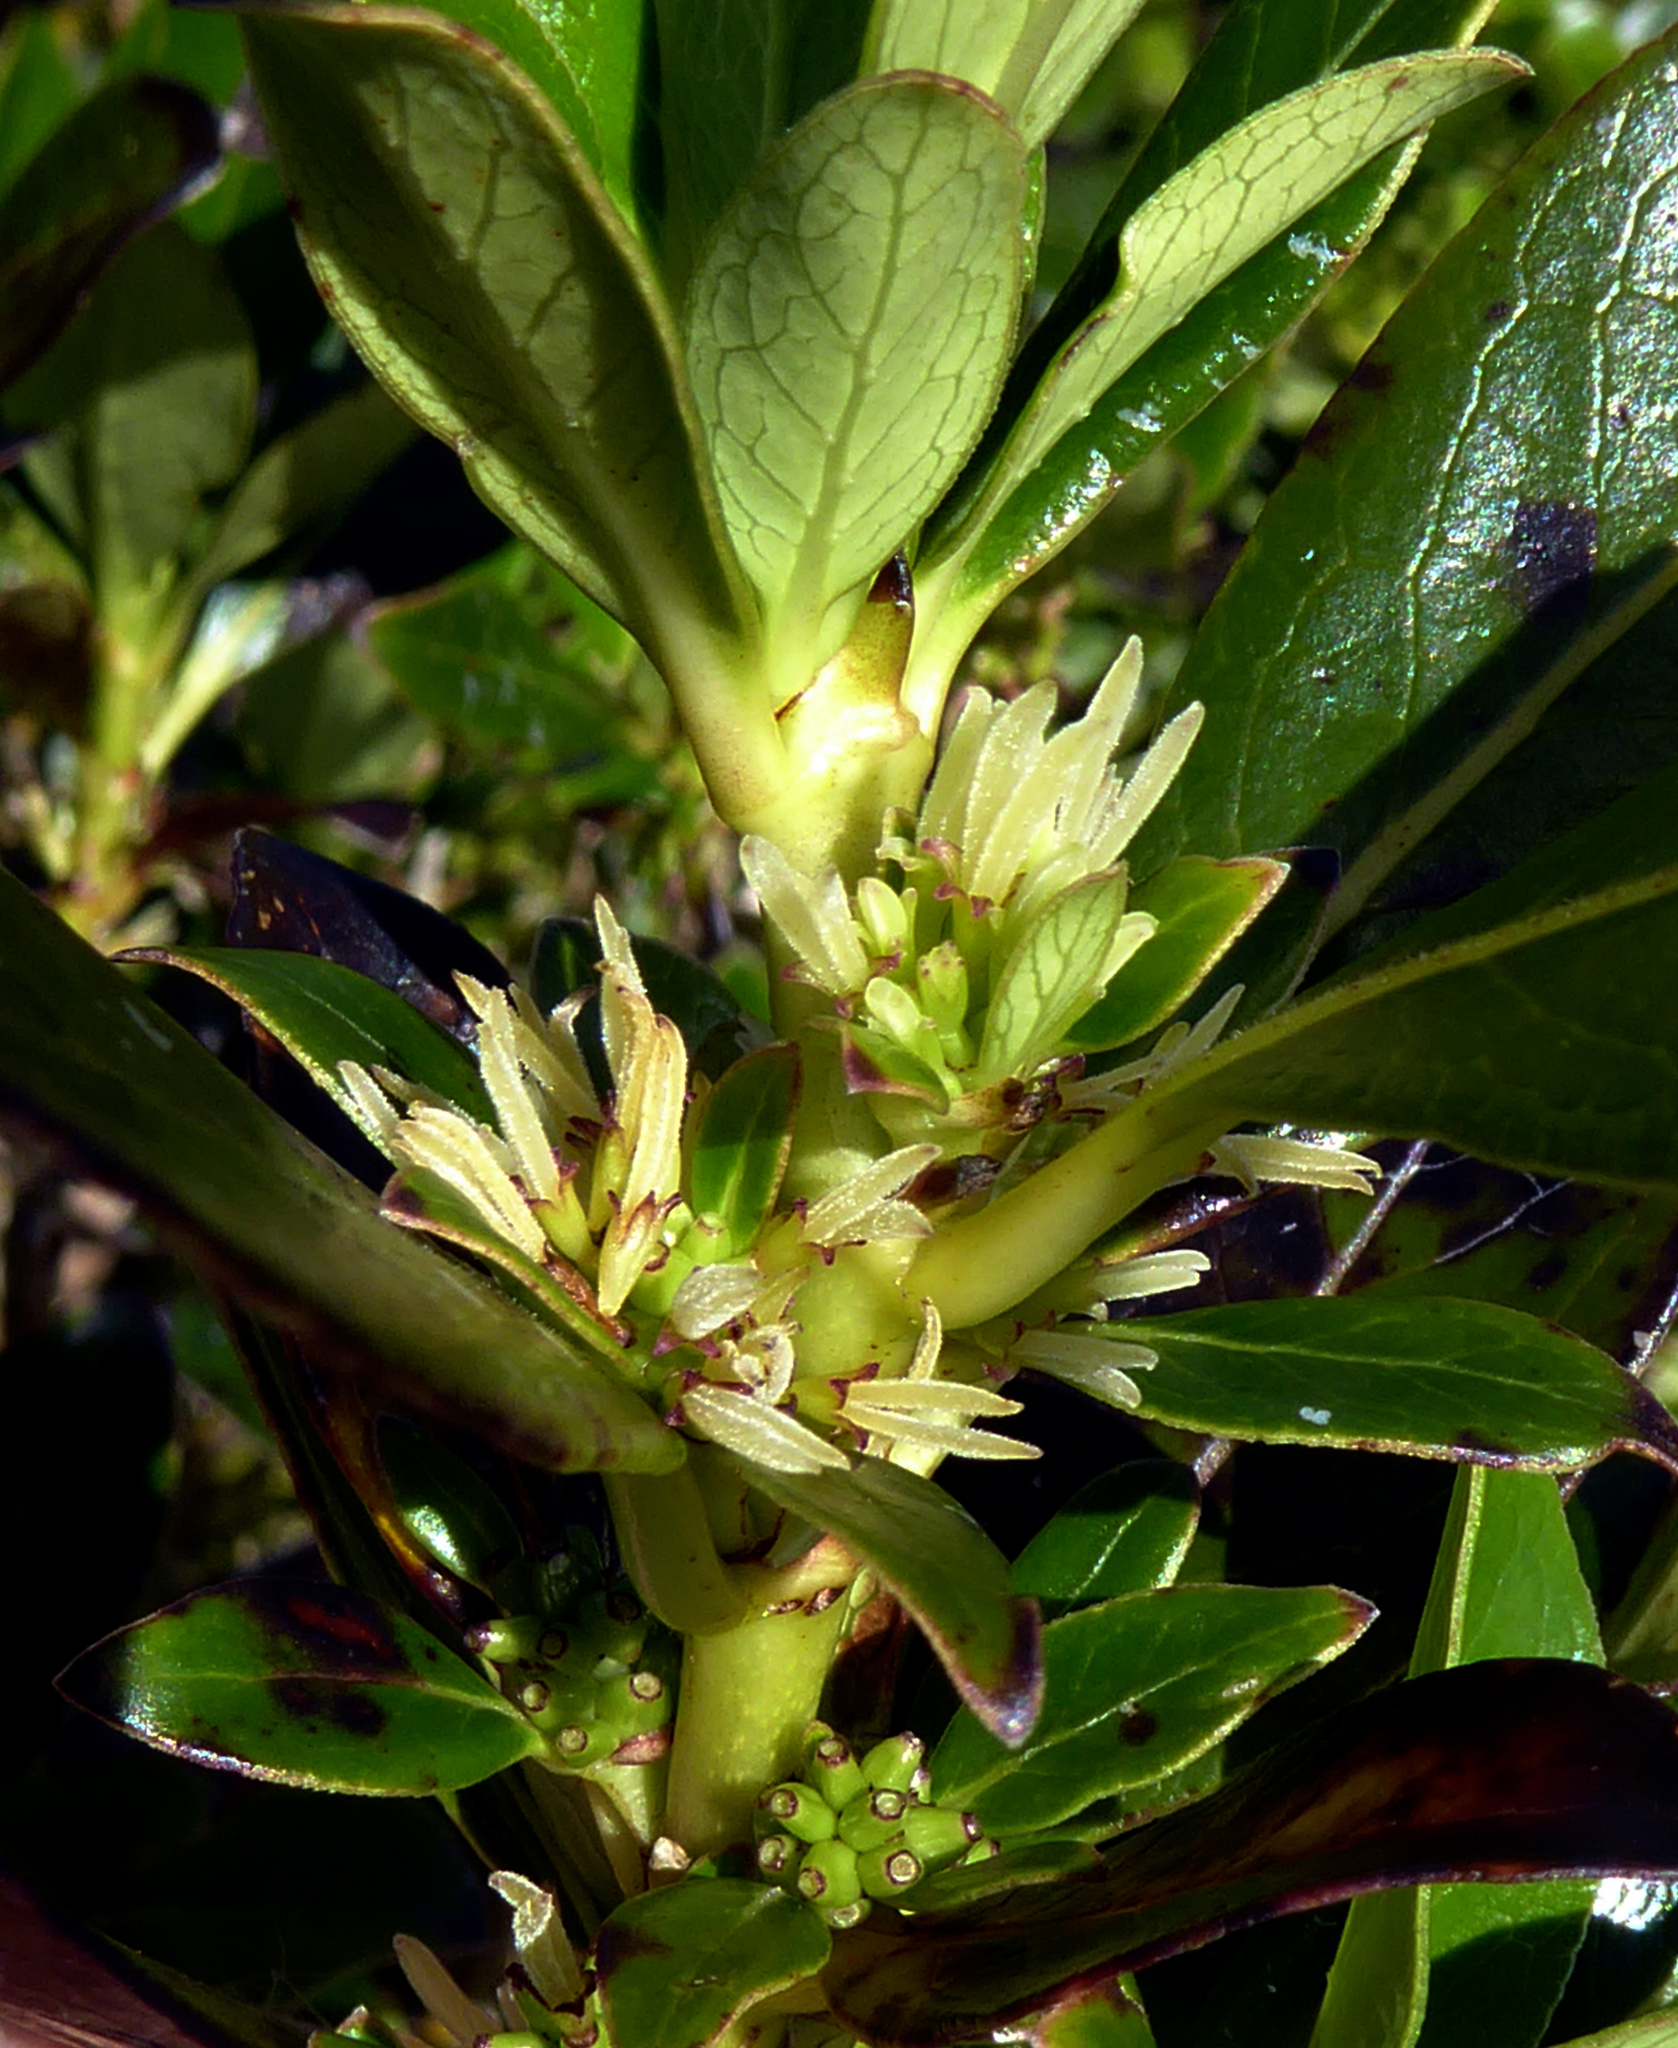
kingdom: Plantae
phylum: Tracheophyta
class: Magnoliopsida
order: Gentianales
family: Rubiaceae
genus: Coprosma
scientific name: Coprosma robusta
